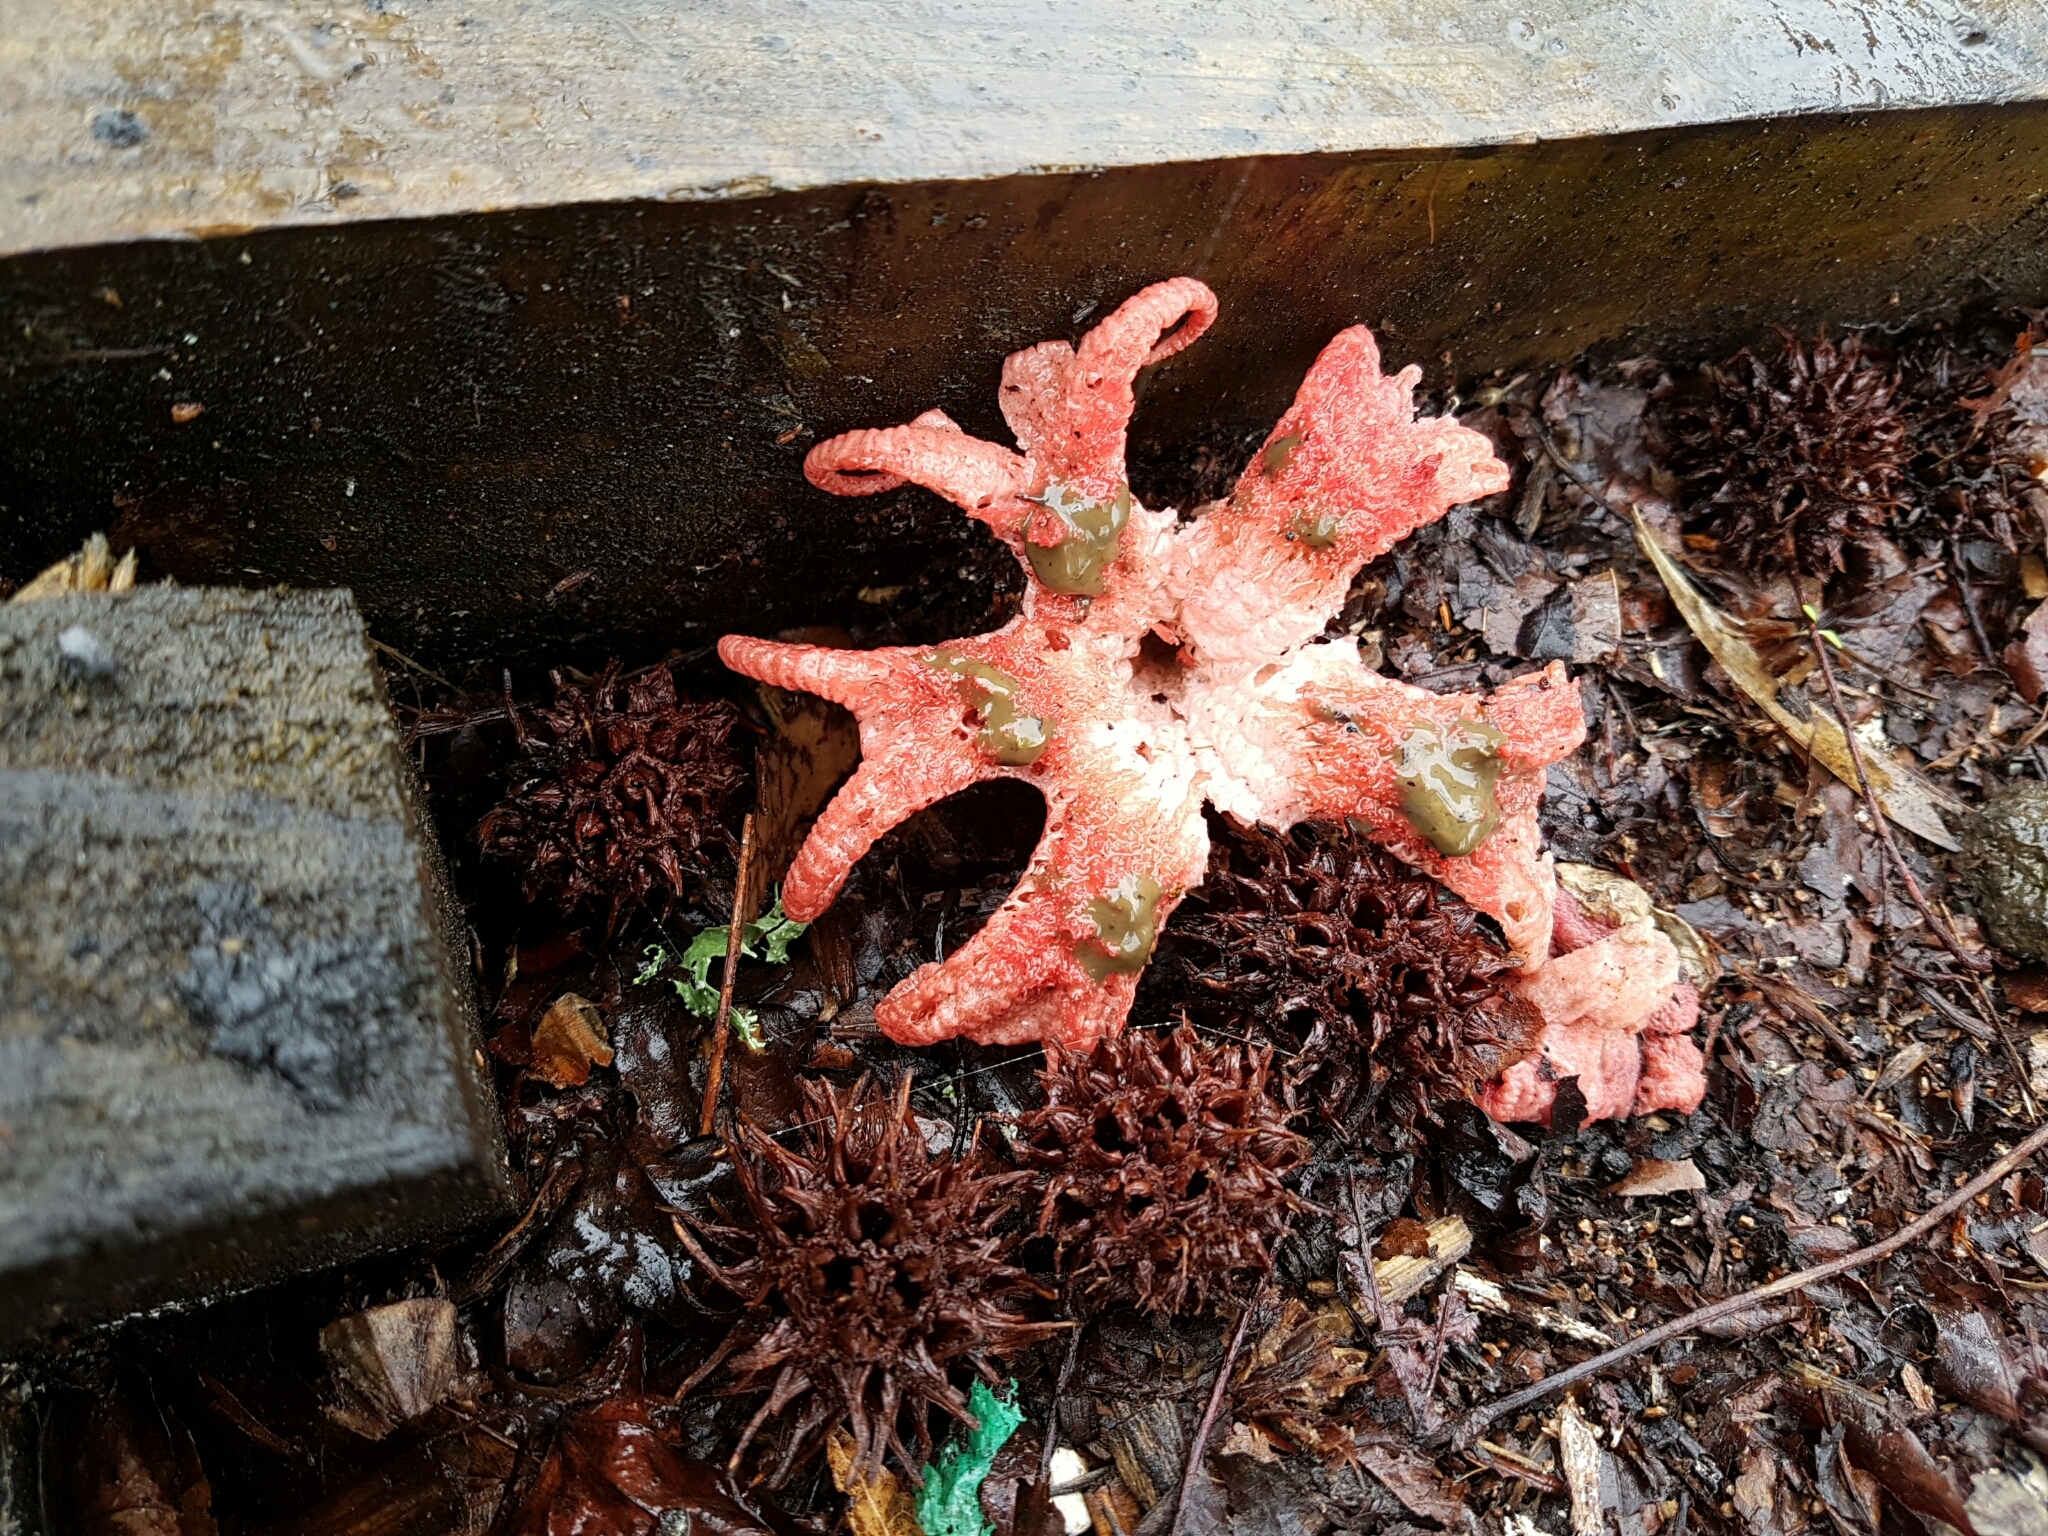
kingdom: Fungi
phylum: Basidiomycota
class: Agaricomycetes
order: Phallales
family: Phallaceae
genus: Aseroe
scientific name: Aseroe rubra
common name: Starfish fungus
